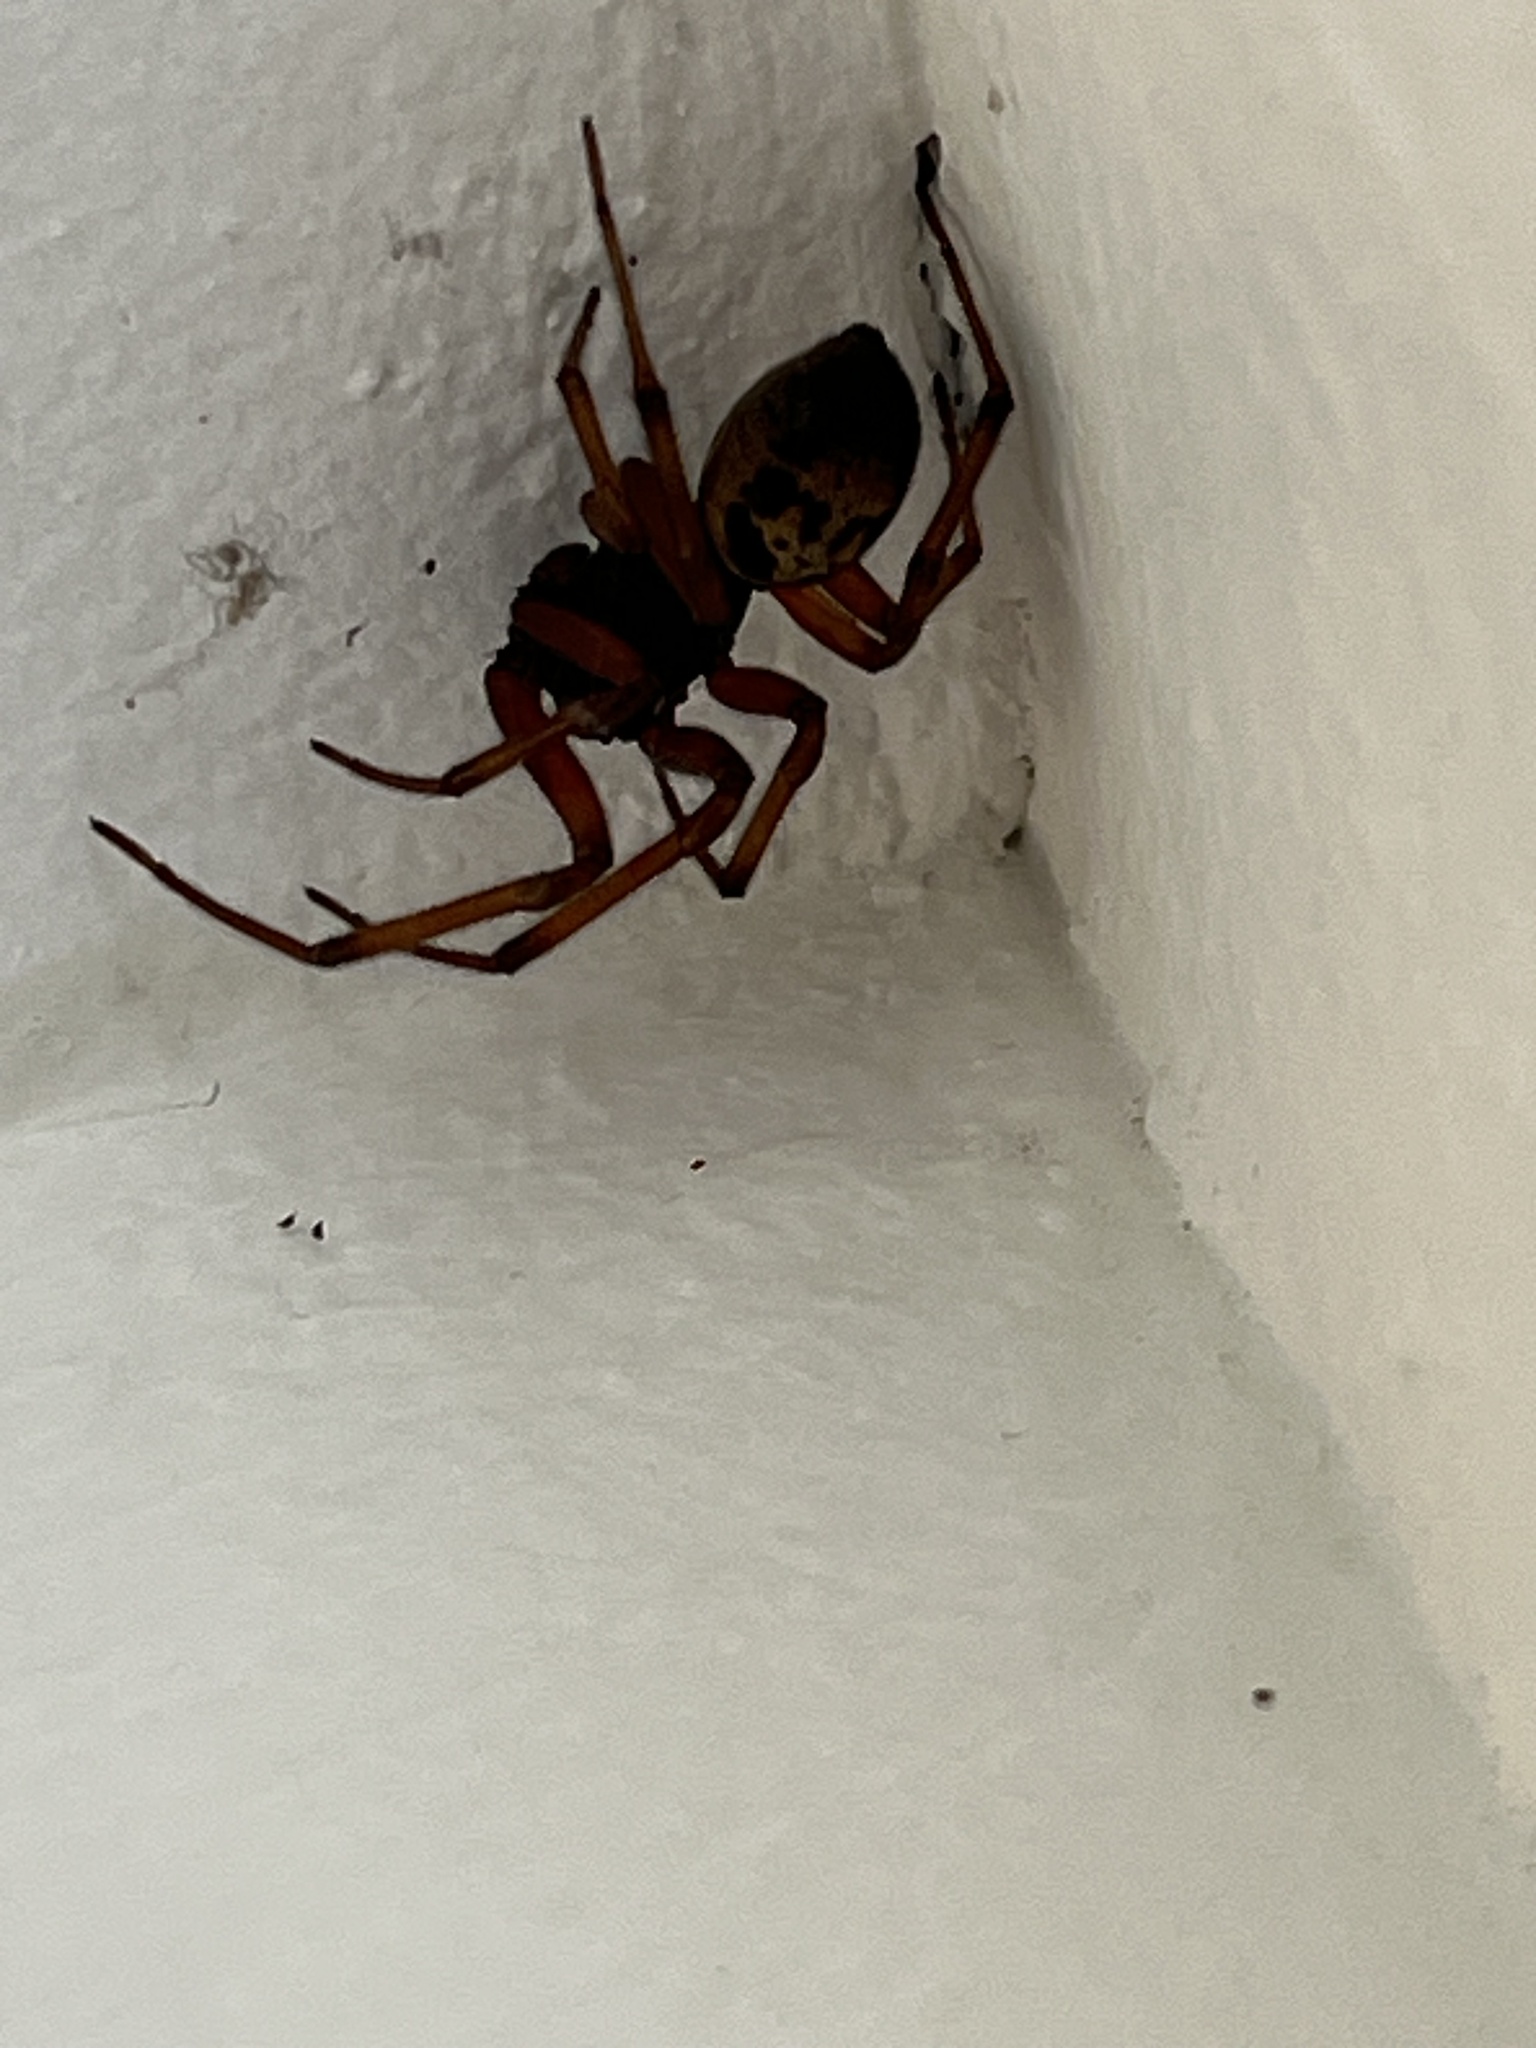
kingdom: Animalia
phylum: Arthropoda
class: Arachnida
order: Araneae
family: Theridiidae
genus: Steatoda
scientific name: Steatoda nobilis
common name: Cobweb weaver
